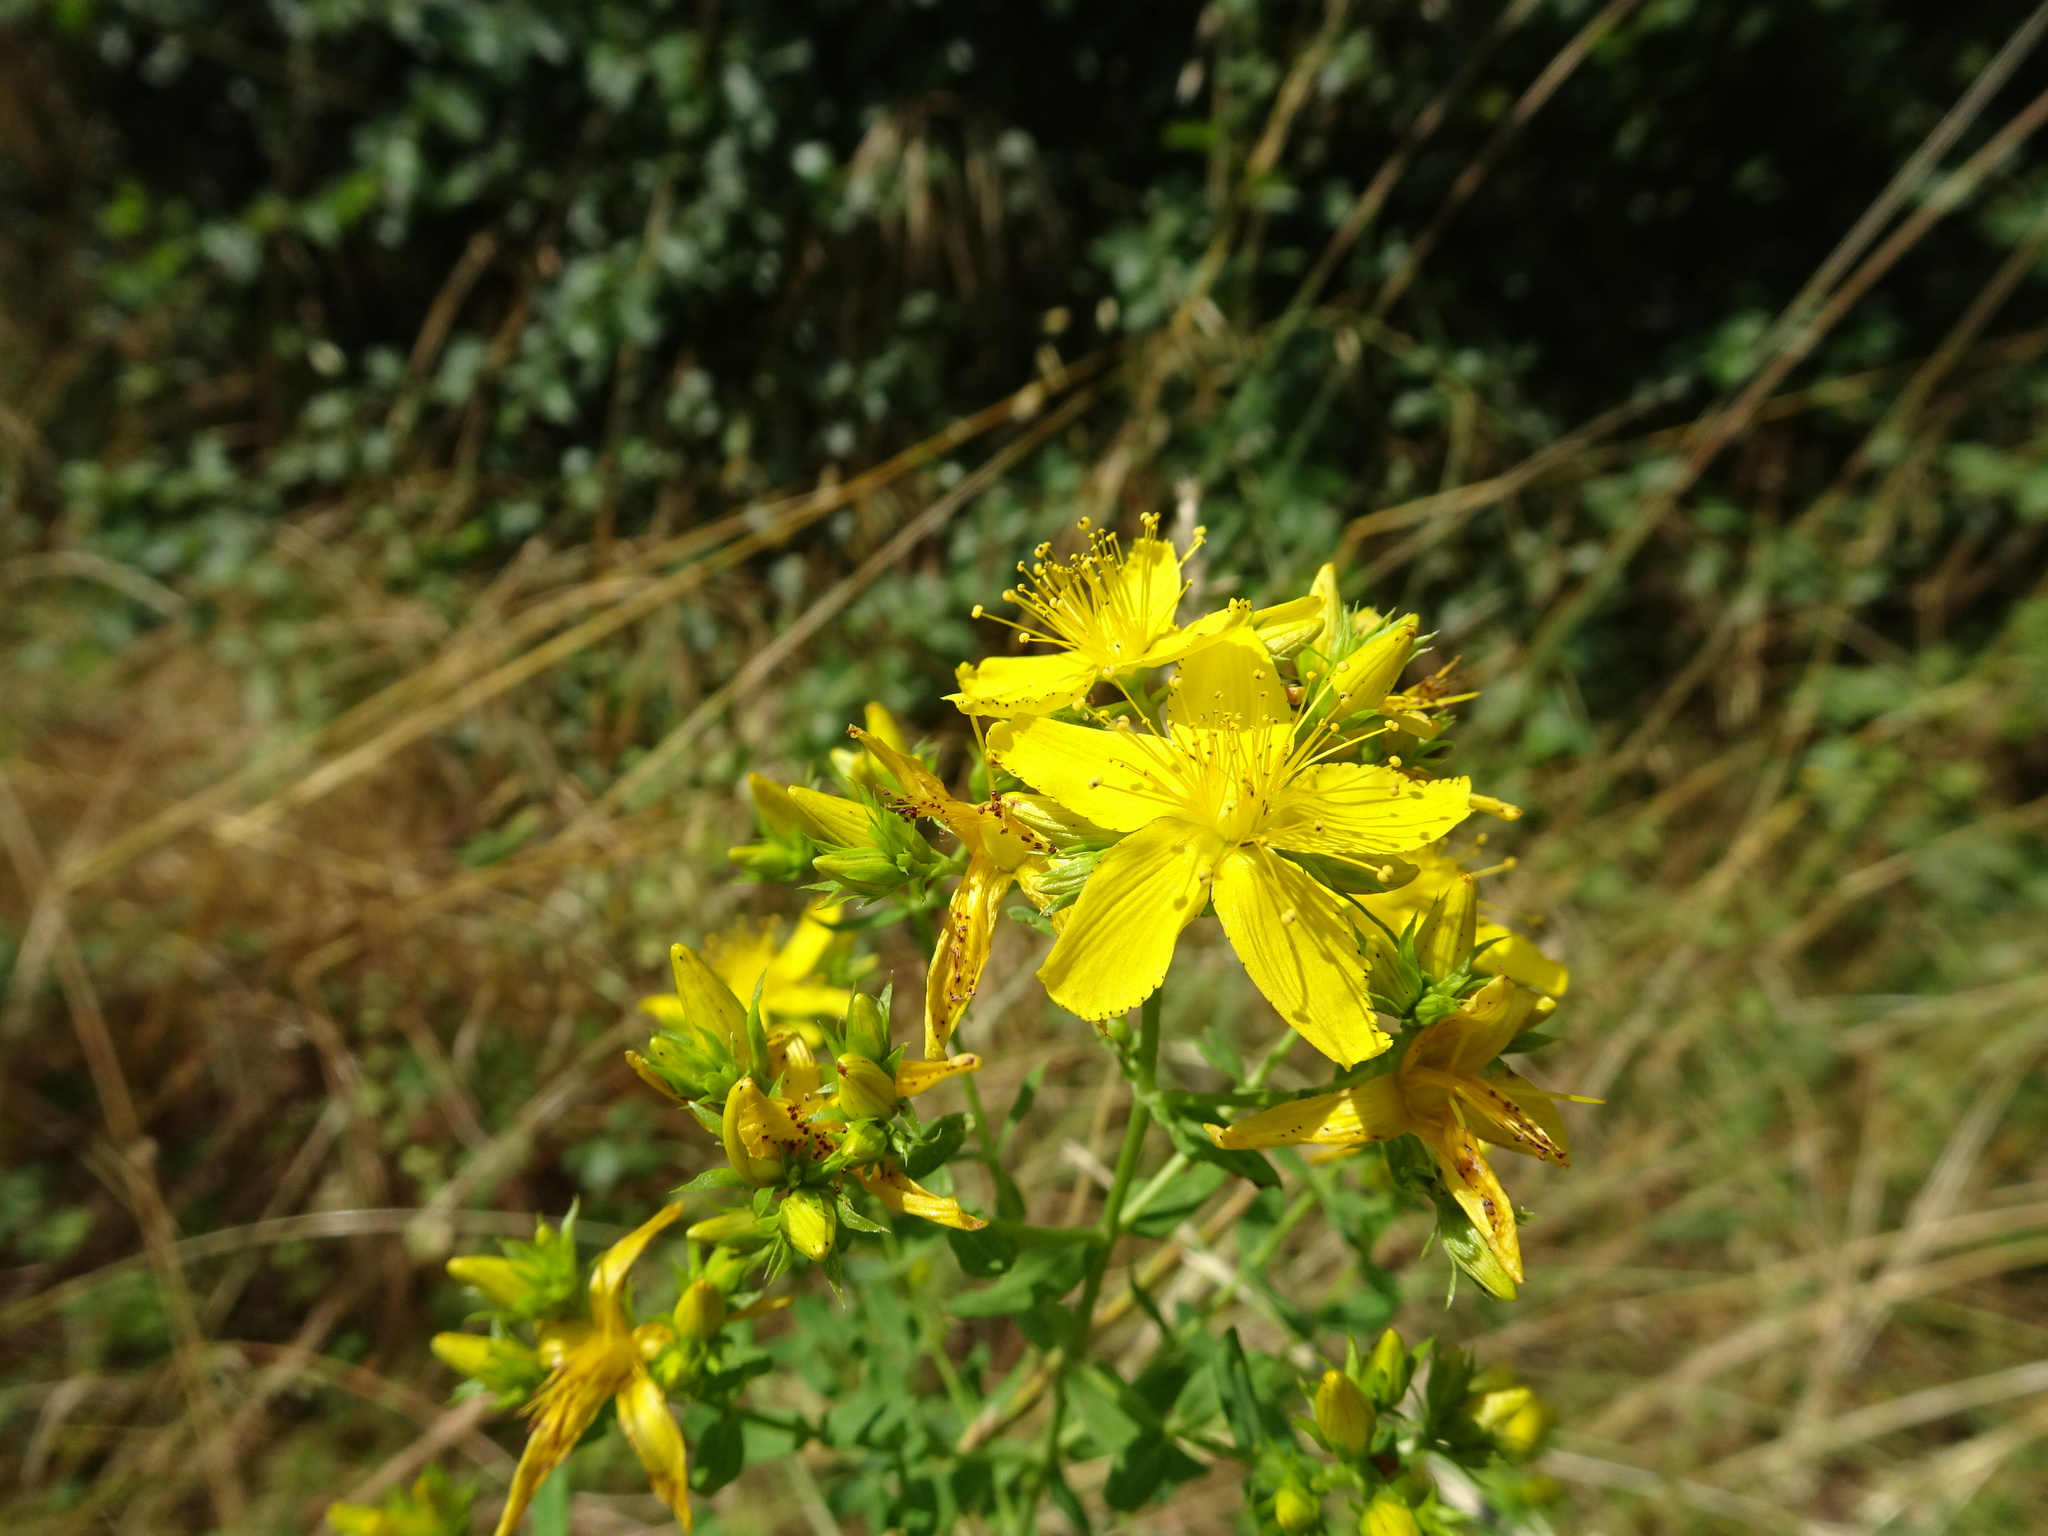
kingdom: Plantae
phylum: Tracheophyta
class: Magnoliopsida
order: Malpighiales
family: Hypericaceae
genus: Hypericum
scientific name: Hypericum perforatum
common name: Common st. johnswort
